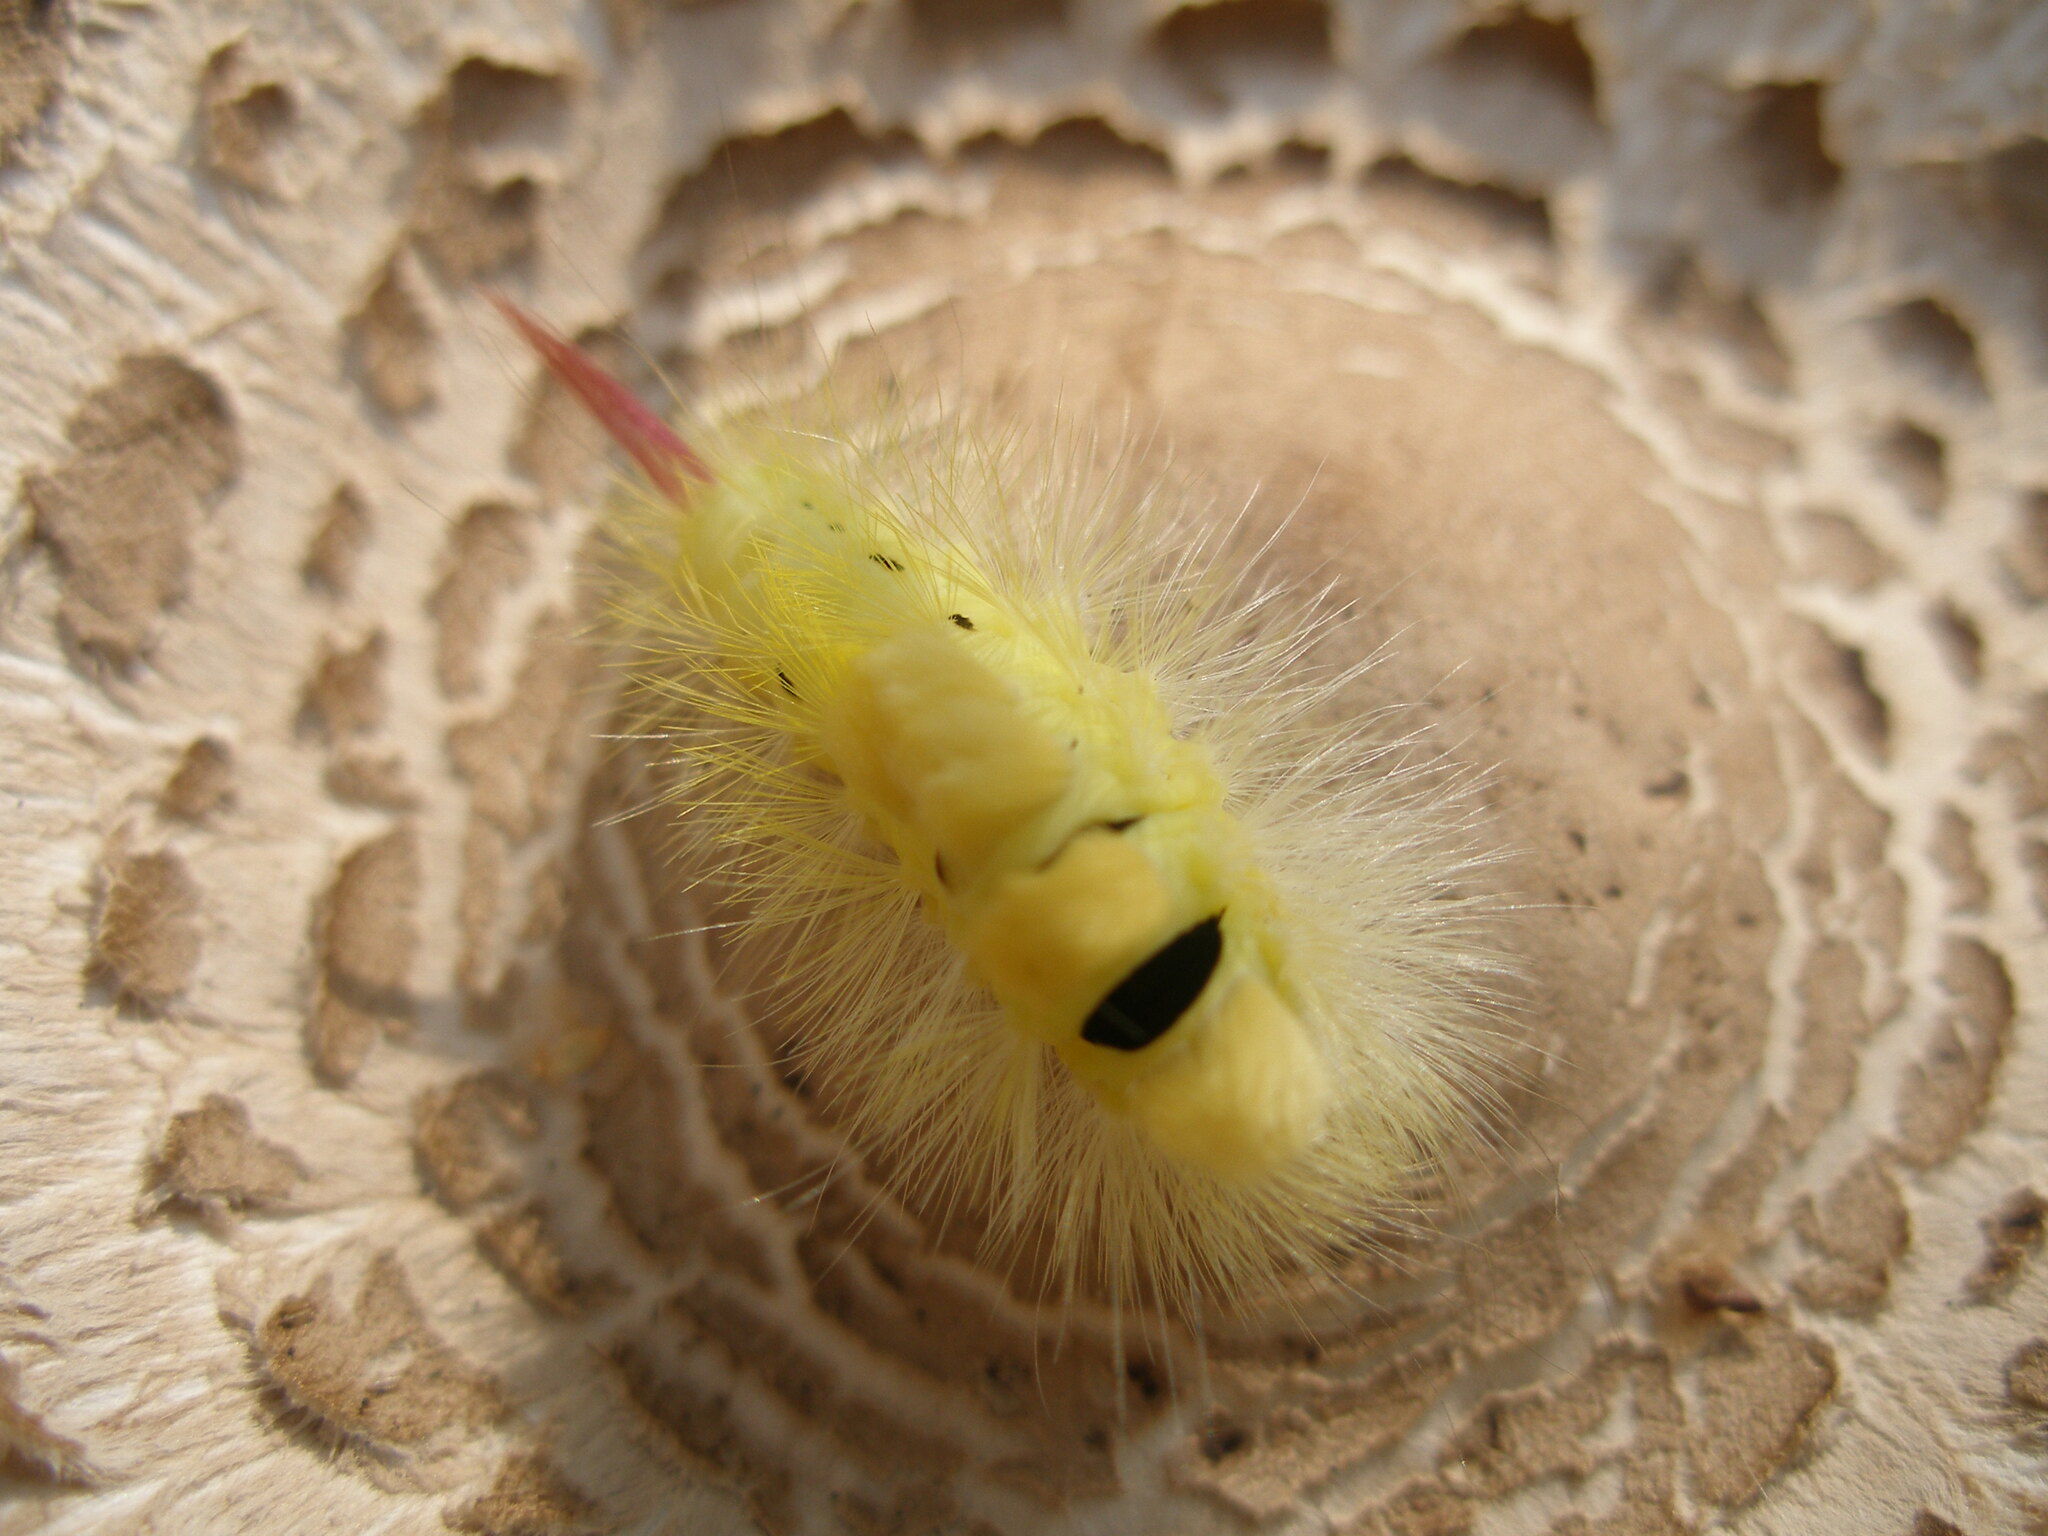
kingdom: Animalia
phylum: Arthropoda
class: Insecta
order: Lepidoptera
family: Erebidae
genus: Calliteara
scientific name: Calliteara pudibunda
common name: Pale tussock
